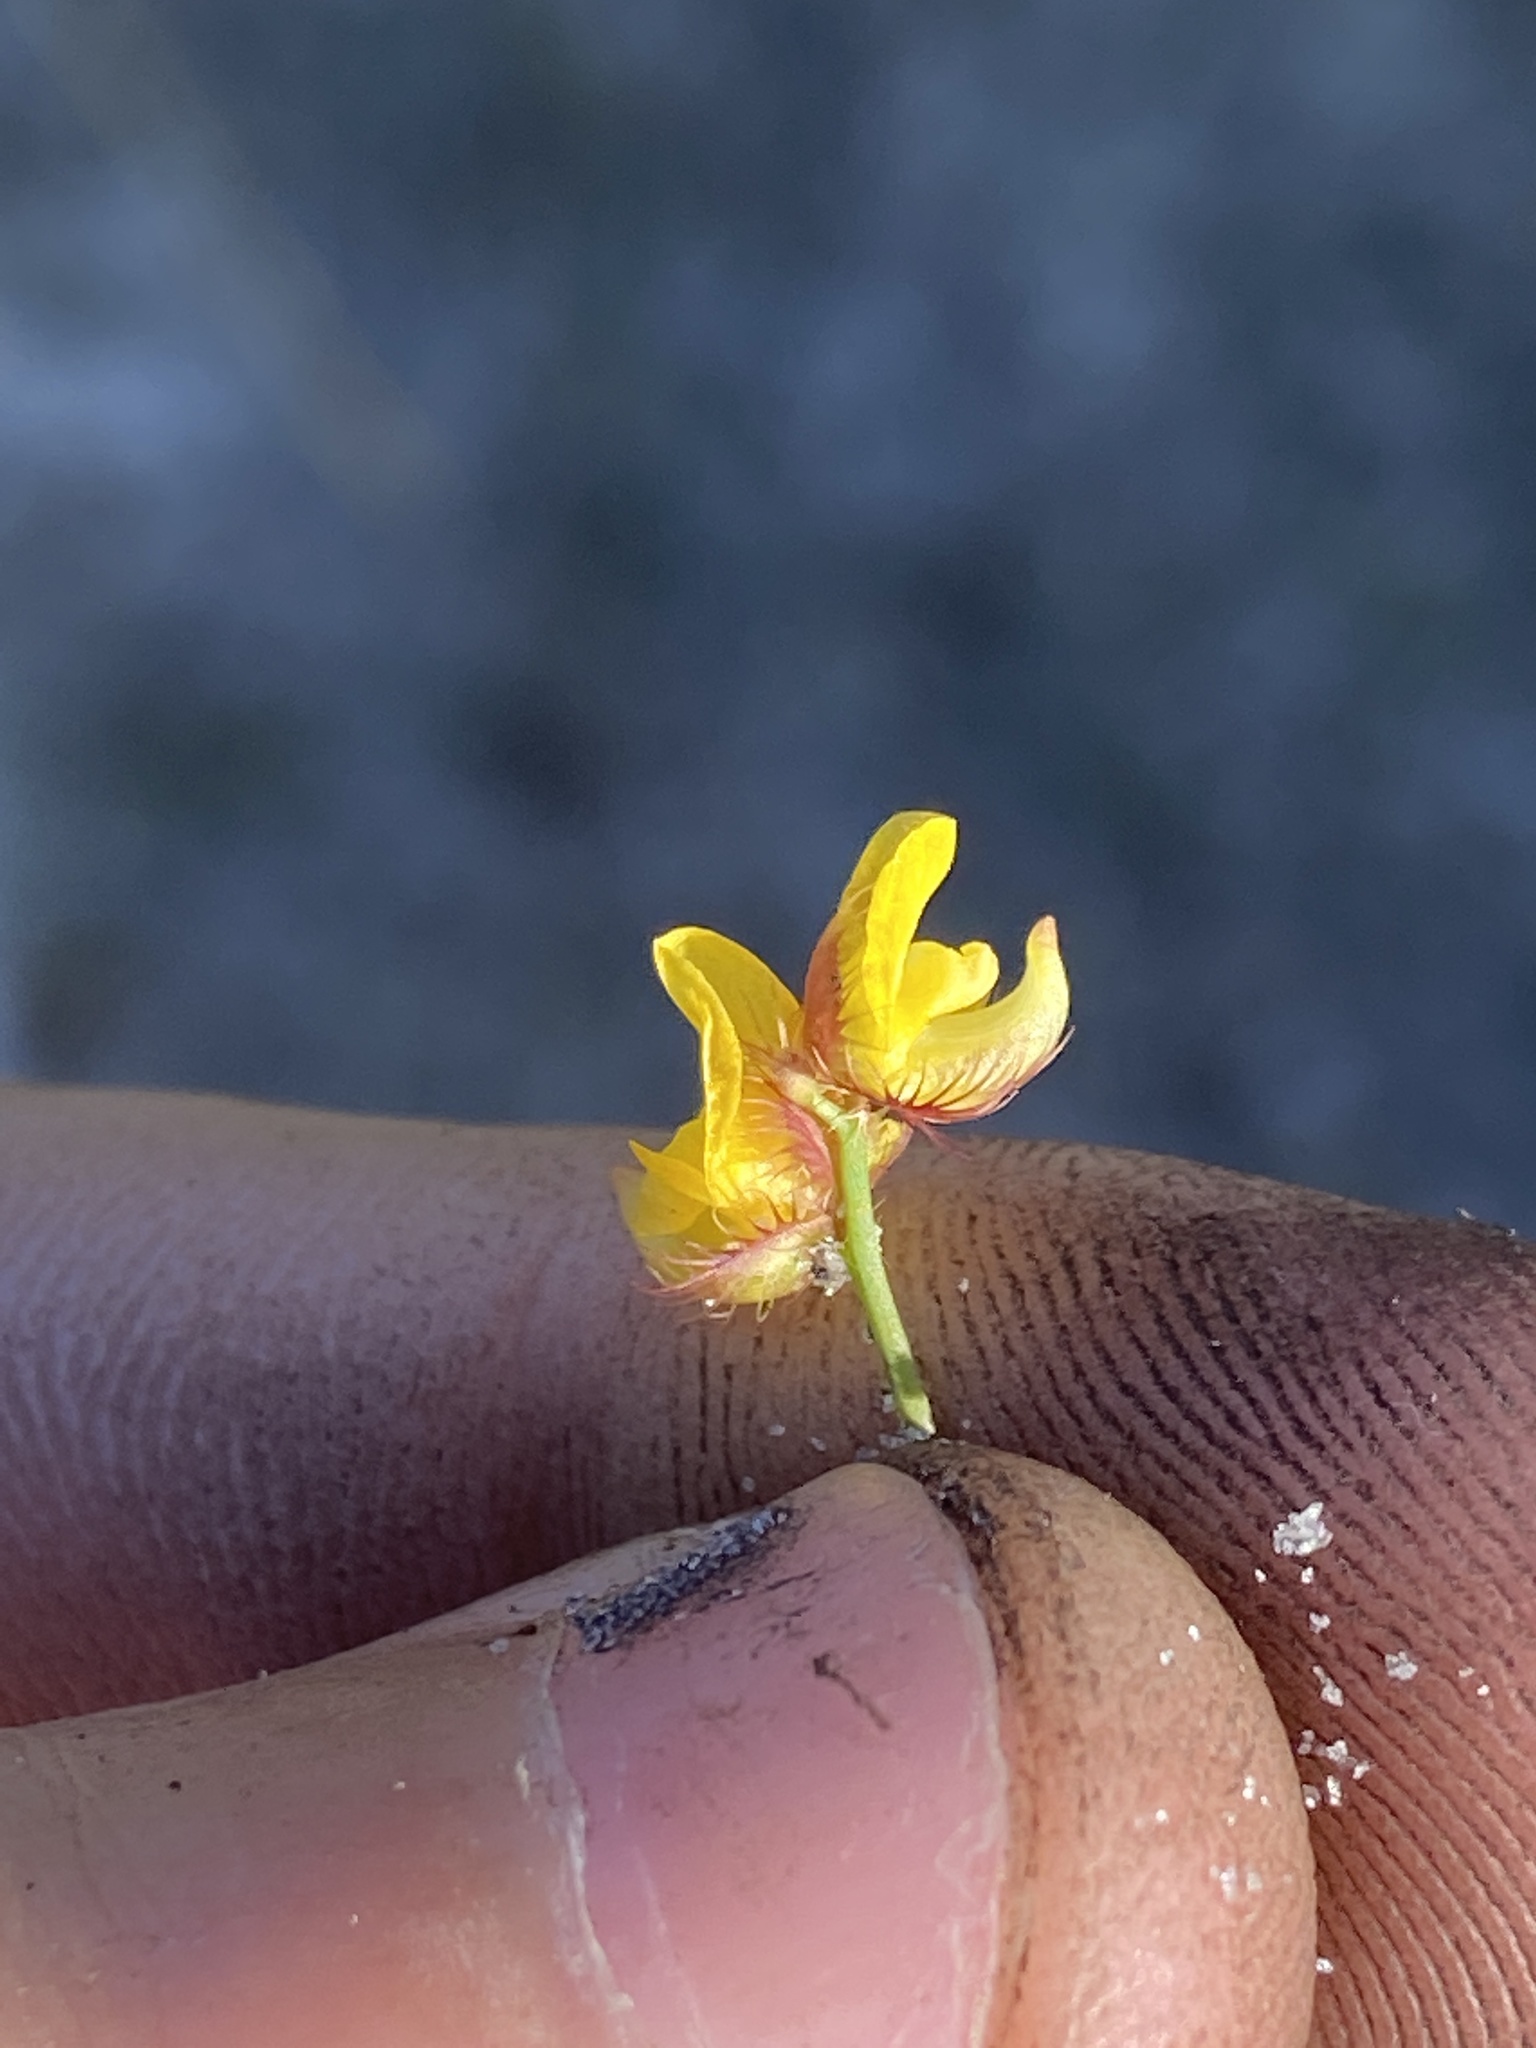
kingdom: Plantae
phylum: Tracheophyta
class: Magnoliopsida
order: Lamiales
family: Lentibulariaceae
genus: Utricularia
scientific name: Utricularia simulans
